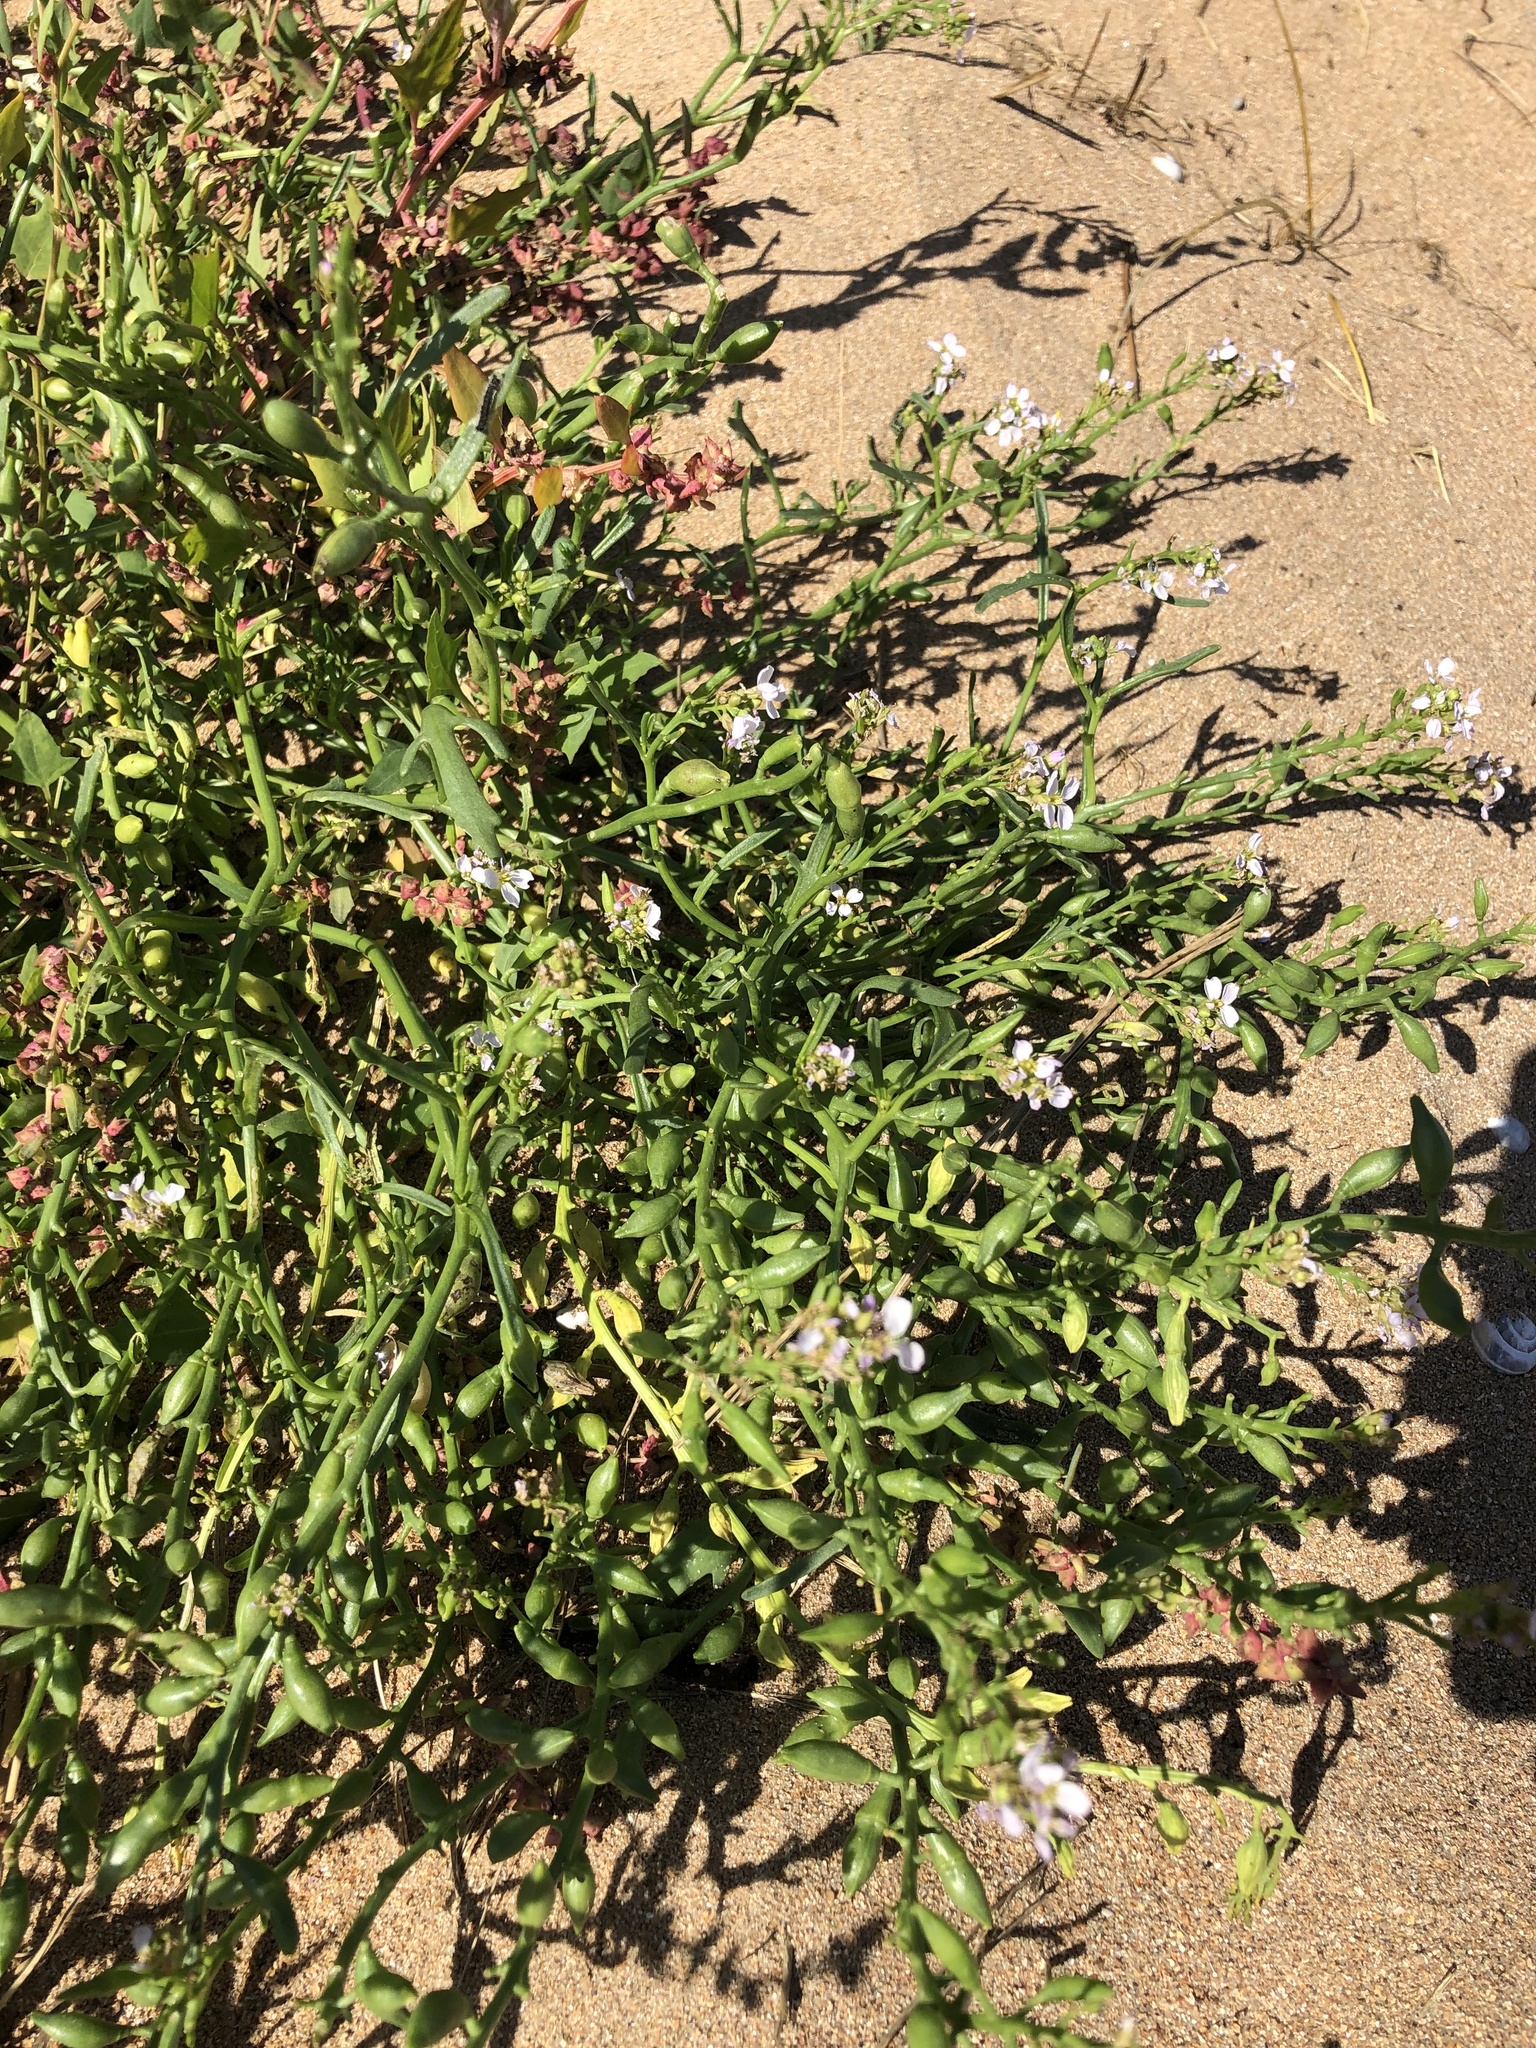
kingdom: Plantae
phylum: Tracheophyta
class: Magnoliopsida
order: Brassicales
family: Brassicaceae
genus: Cakile
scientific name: Cakile maritima
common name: Sea rocket
